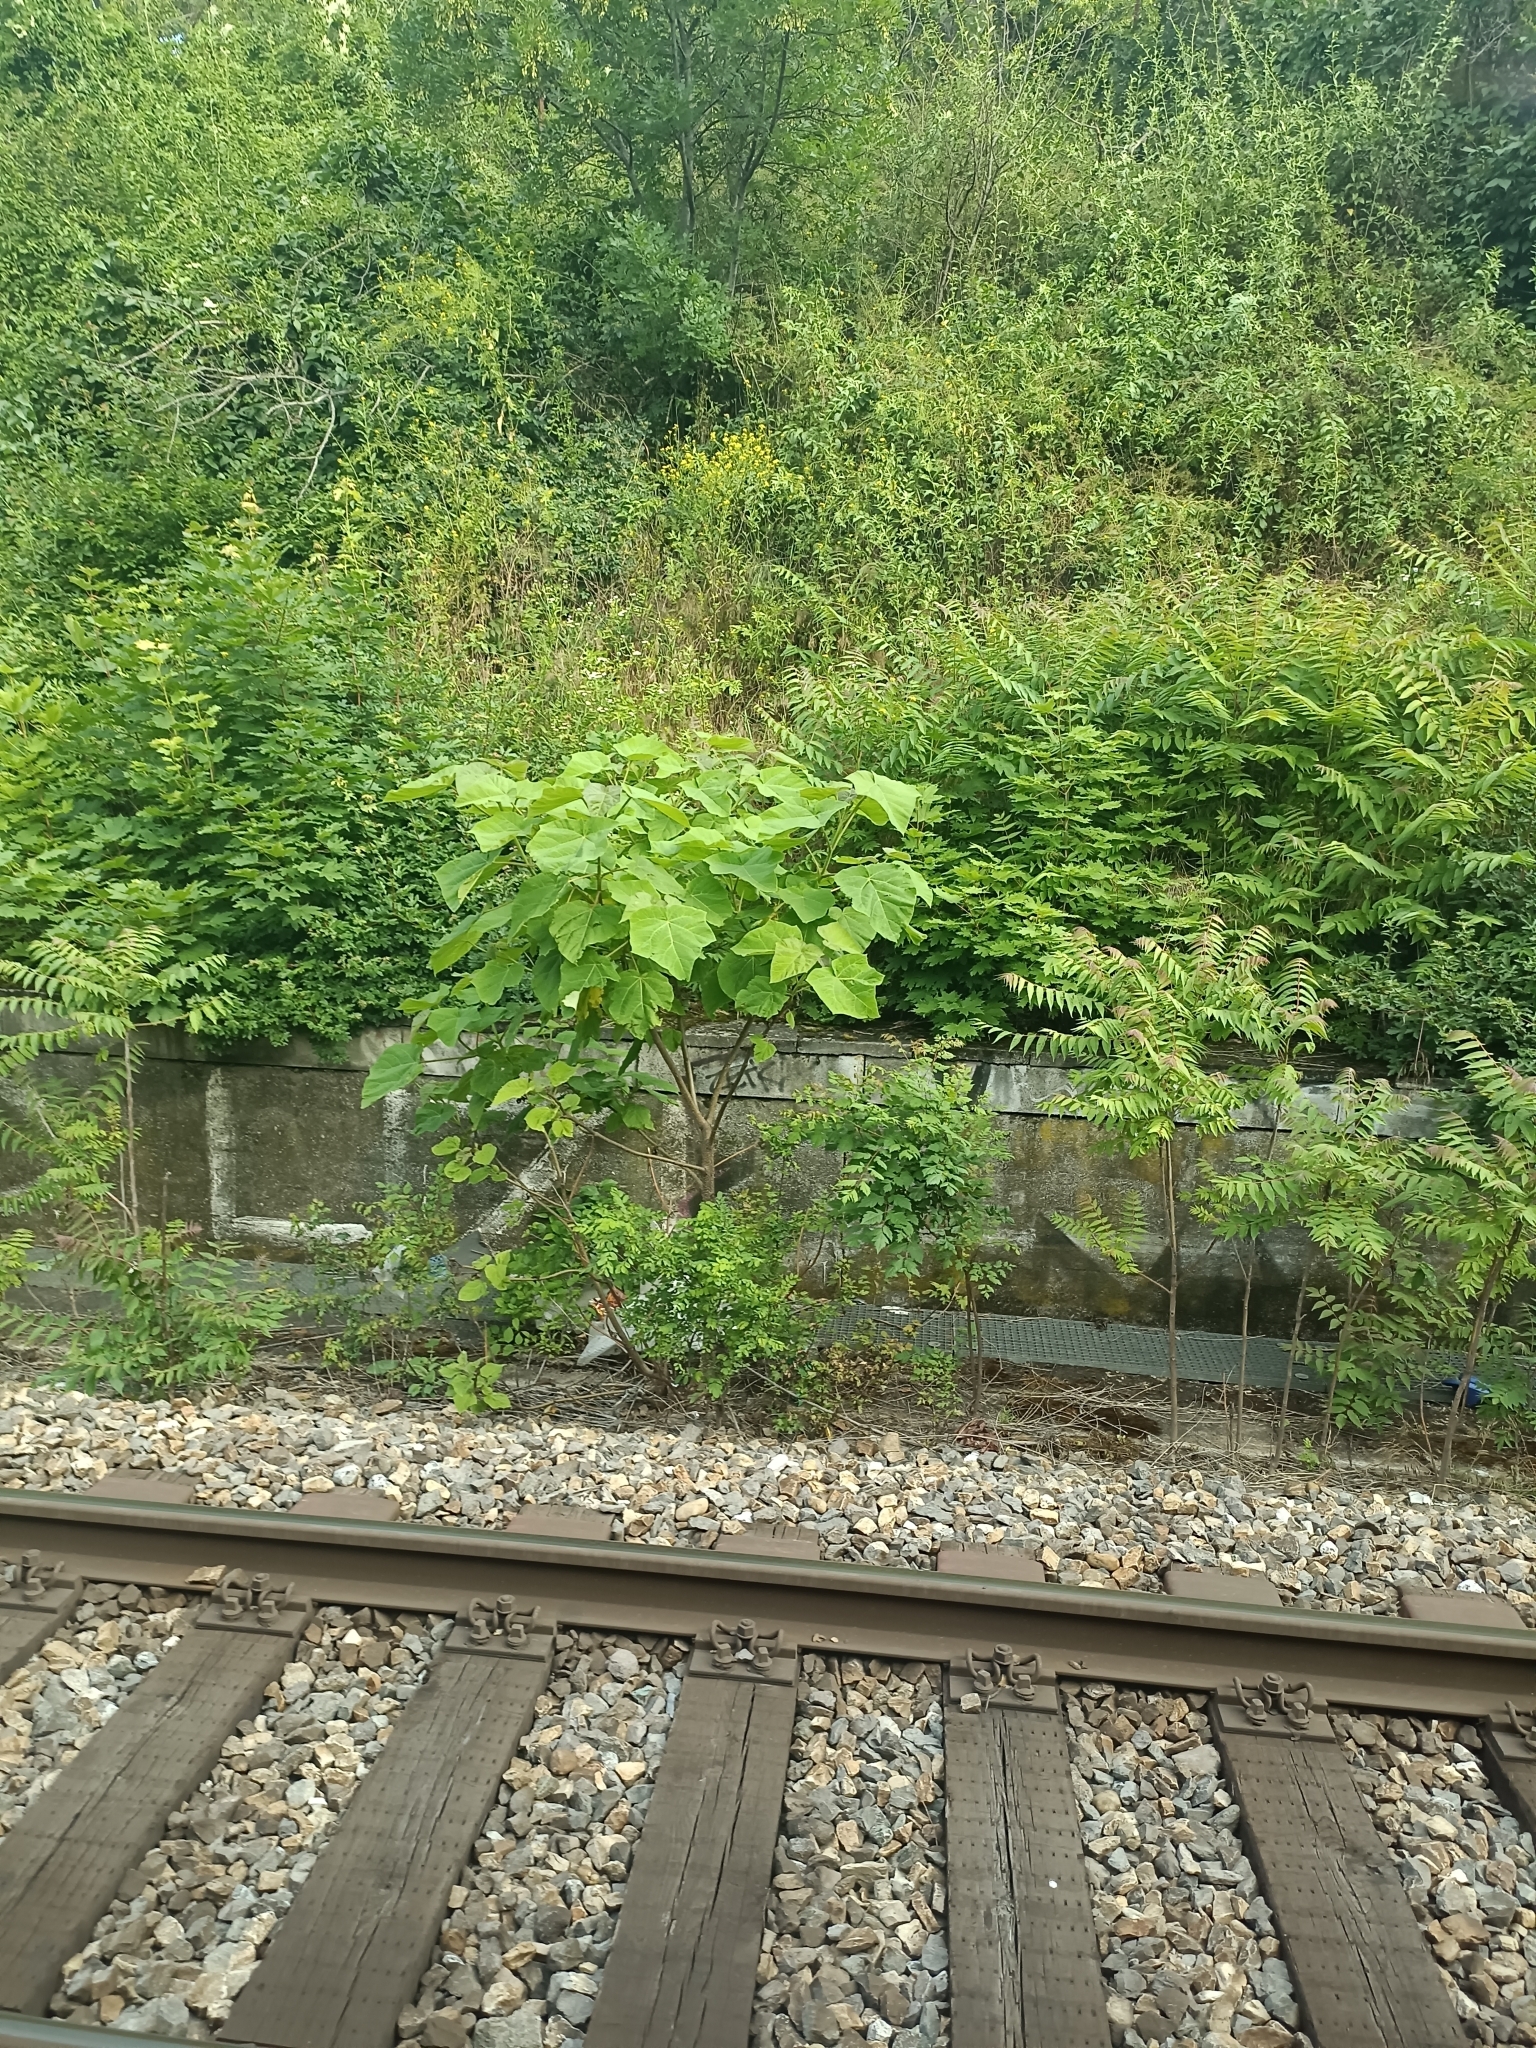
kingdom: Plantae
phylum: Tracheophyta
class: Magnoliopsida
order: Lamiales
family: Paulowniaceae
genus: Paulownia
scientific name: Paulownia tomentosa
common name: Foxglove-tree
